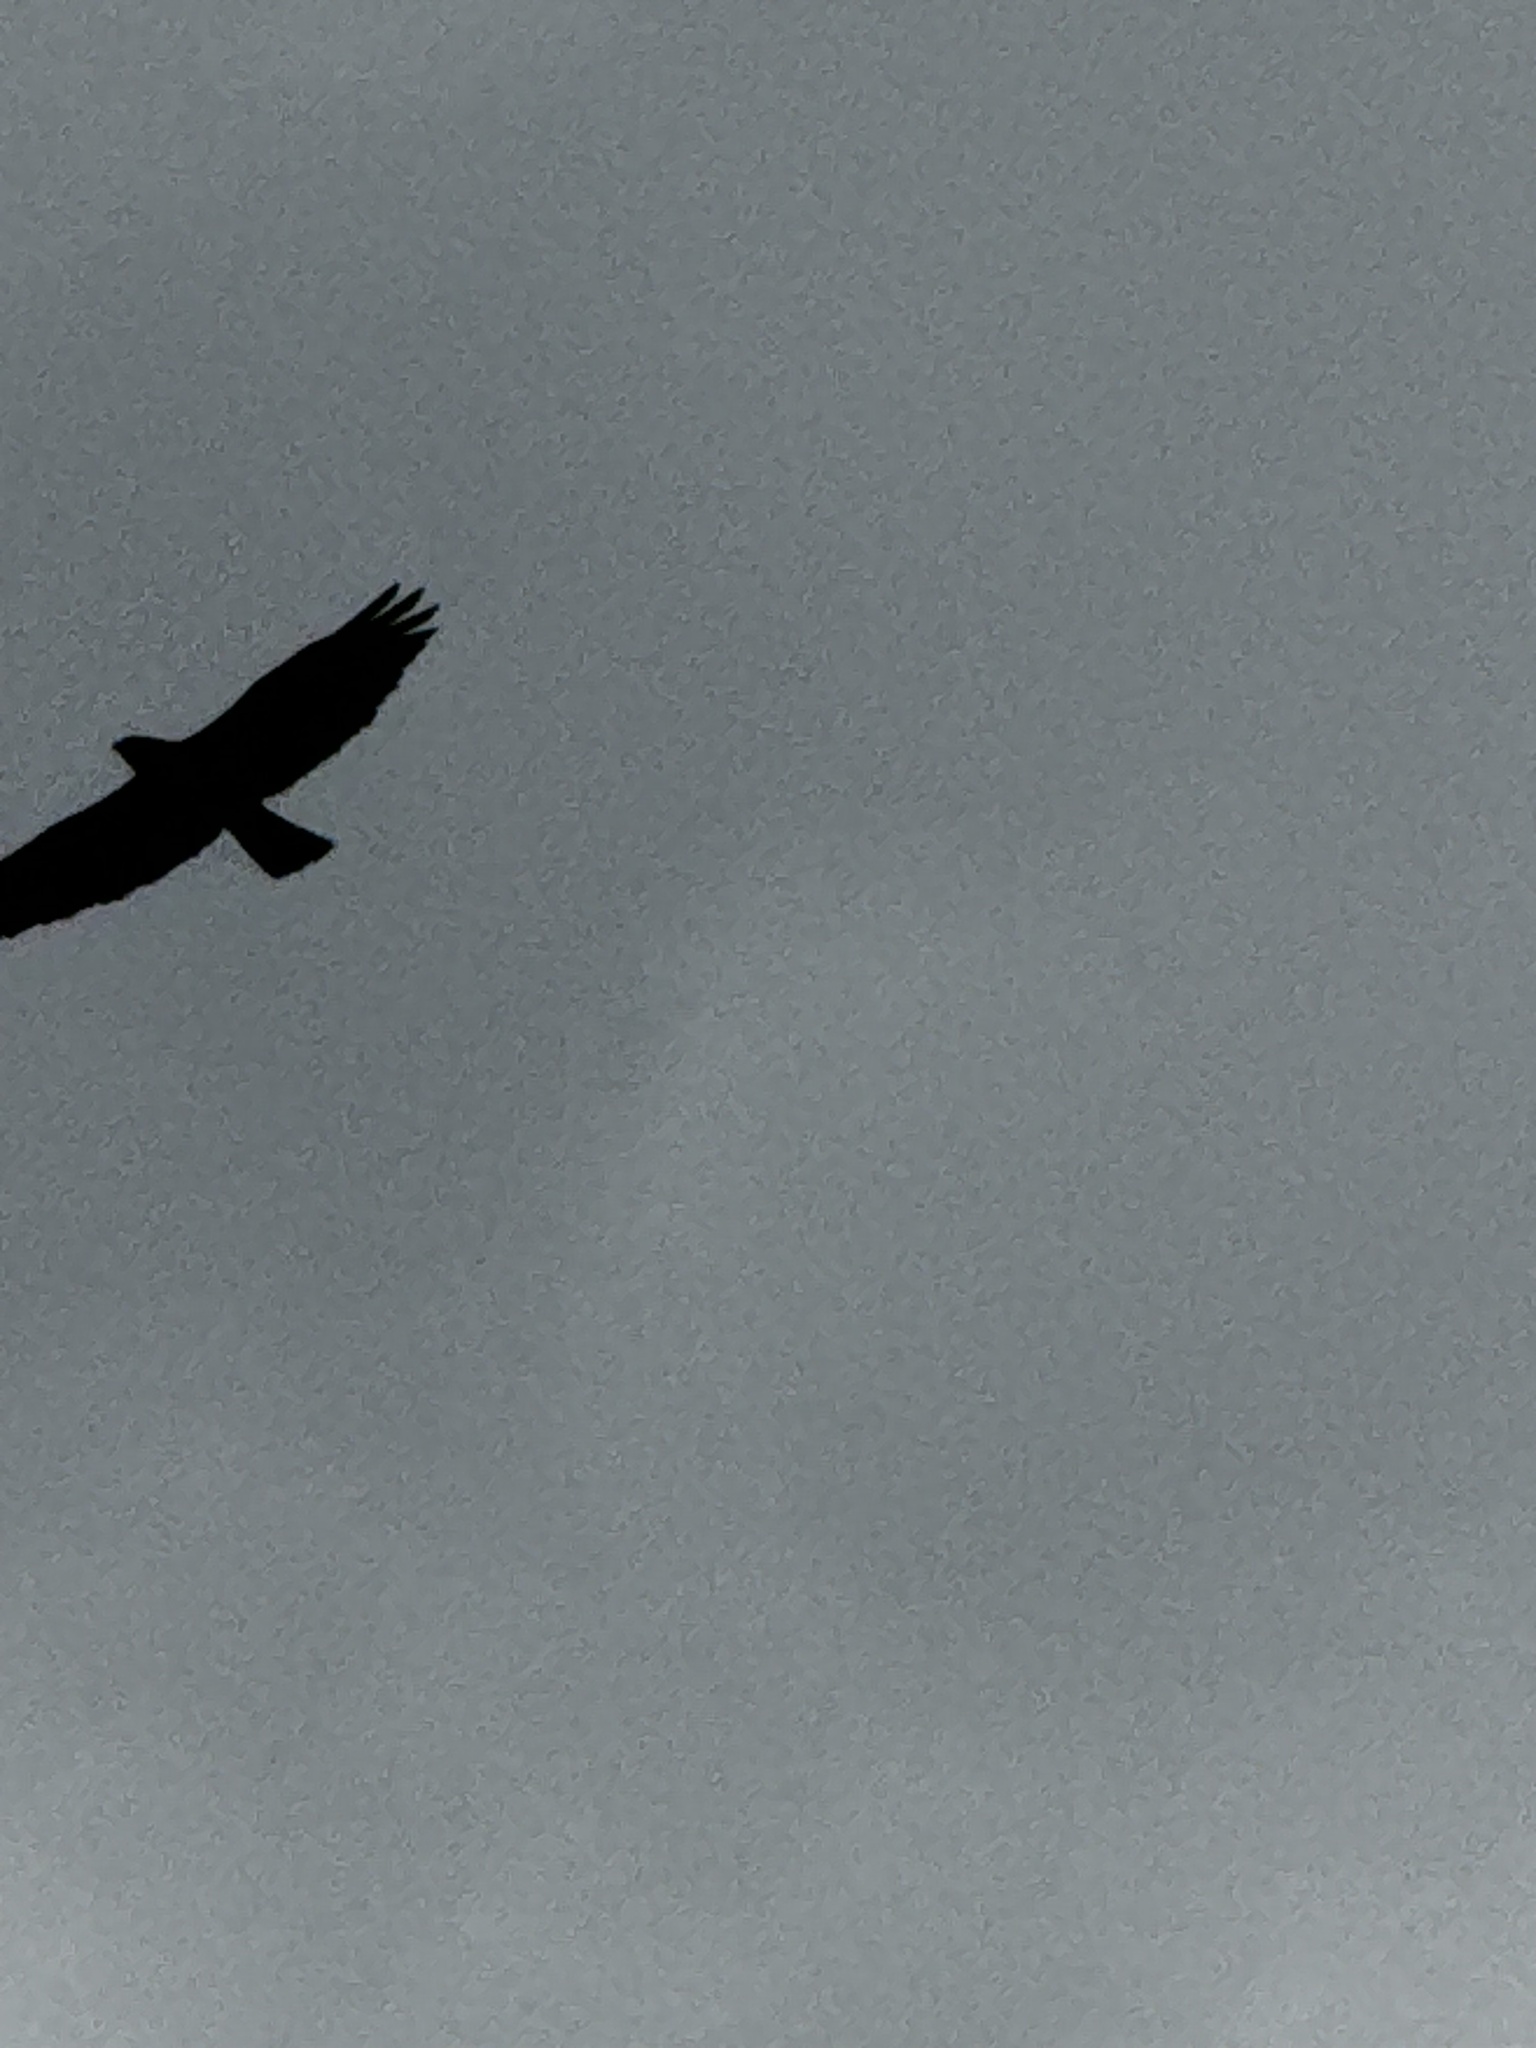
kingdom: Animalia
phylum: Chordata
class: Aves
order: Accipitriformes
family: Accipitridae
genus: Buteo
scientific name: Buteo jamaicensis
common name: Red-tailed hawk
